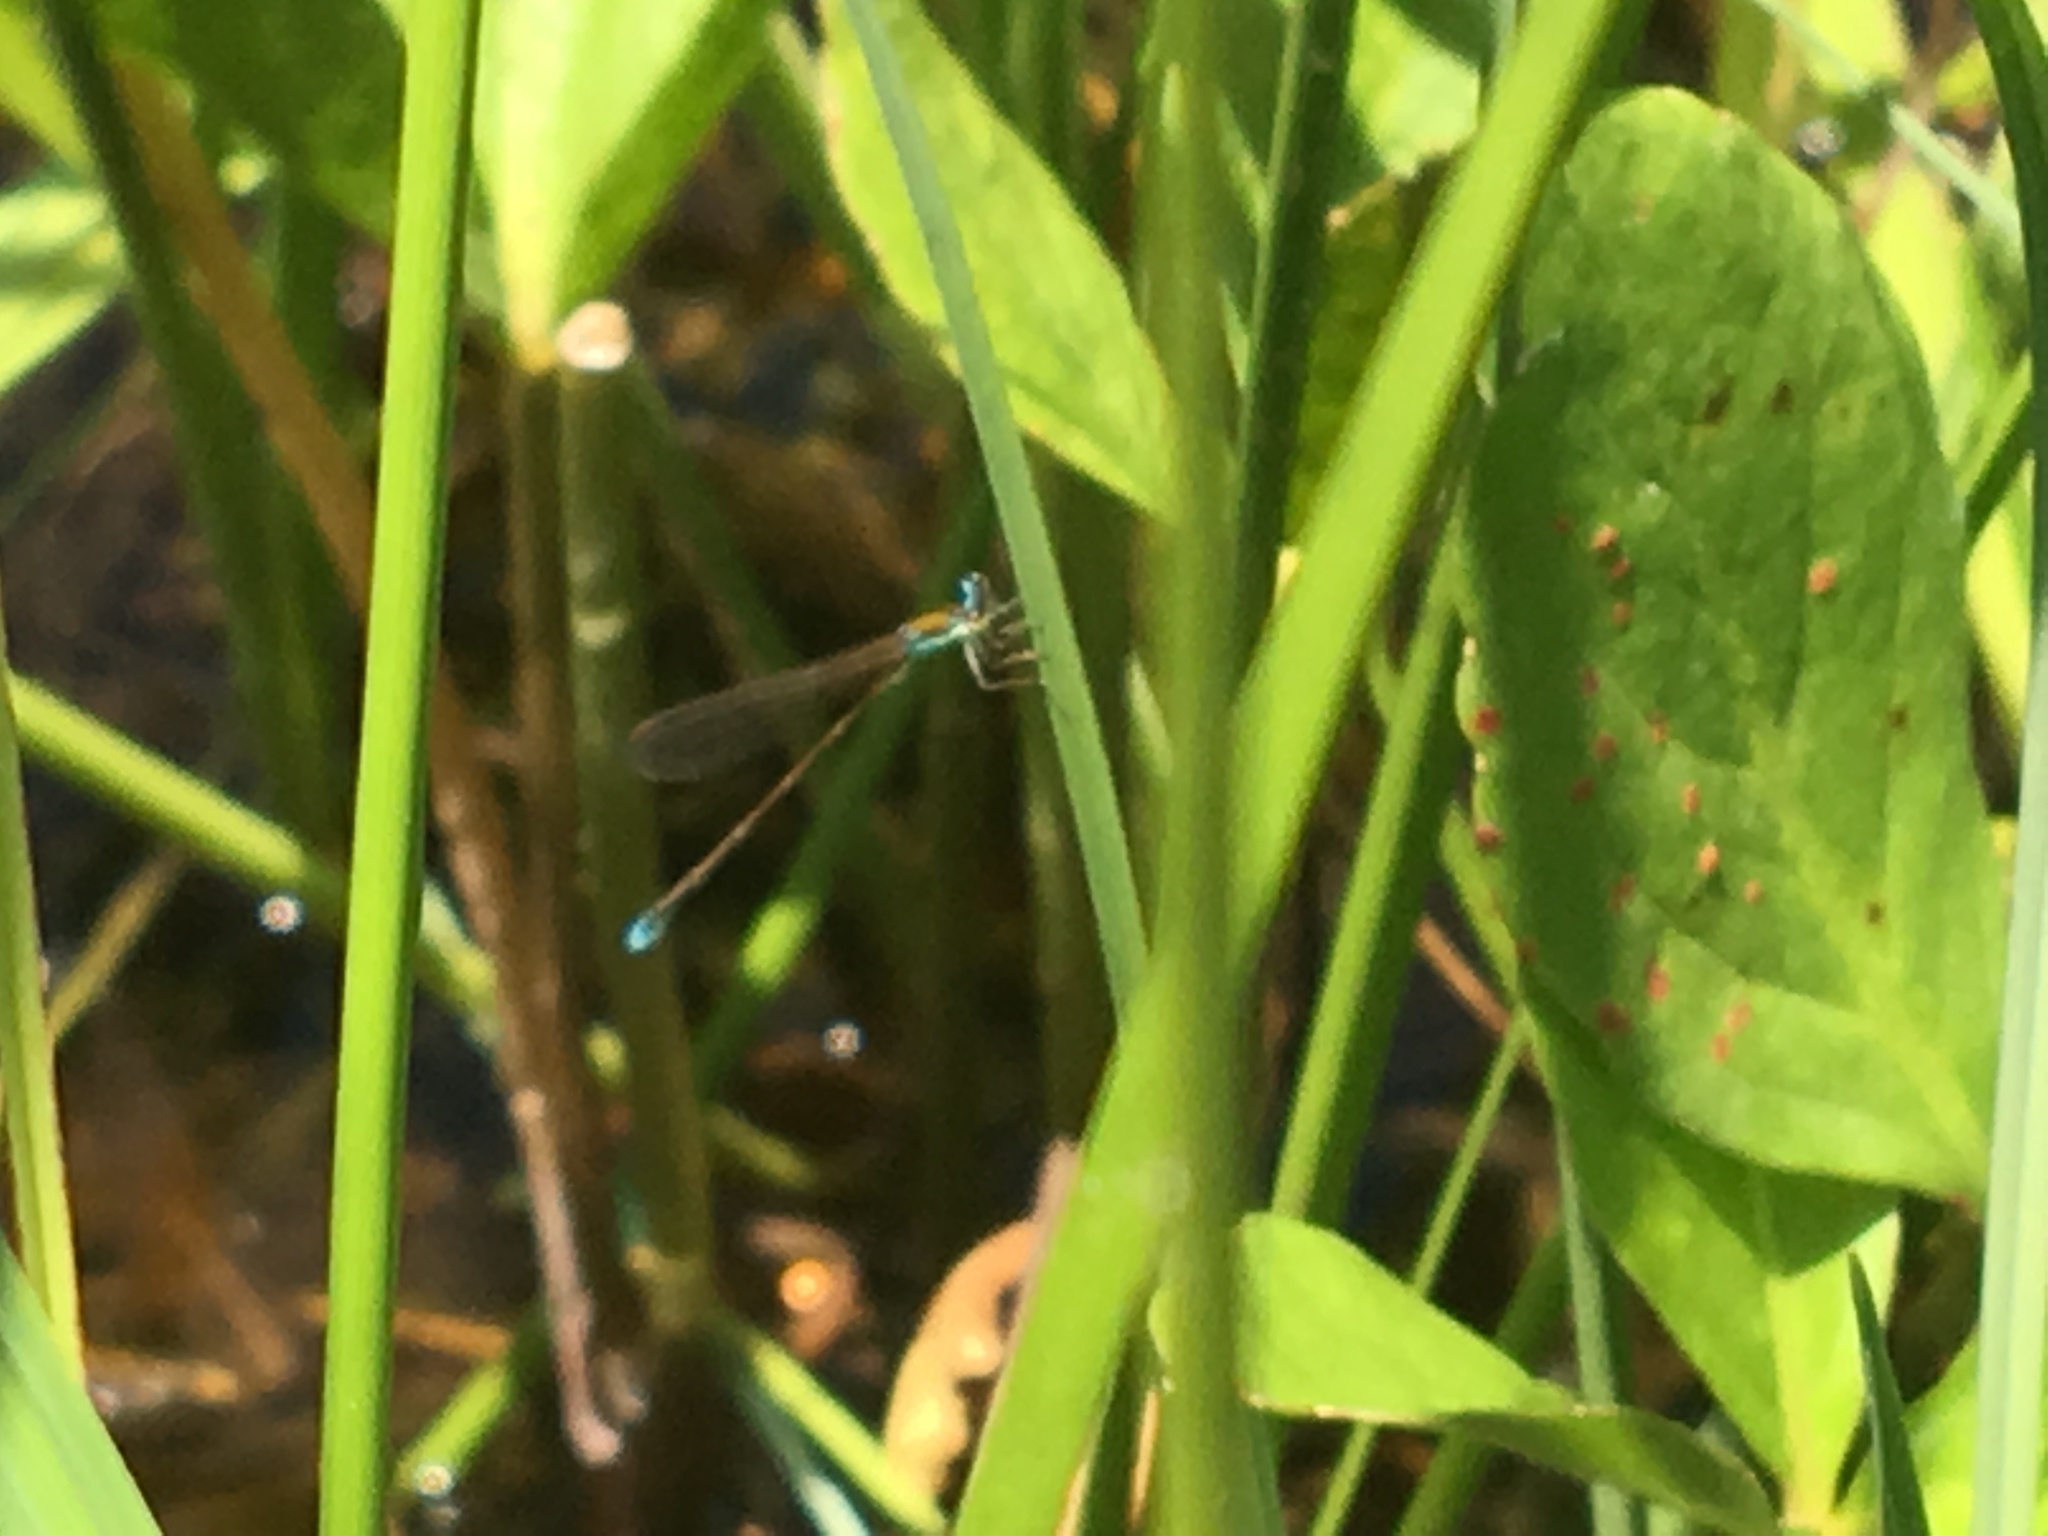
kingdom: Animalia
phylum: Arthropoda
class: Insecta
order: Odonata
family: Coenagrionidae
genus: Nehalennia
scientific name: Nehalennia speciosa
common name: Sedgling
